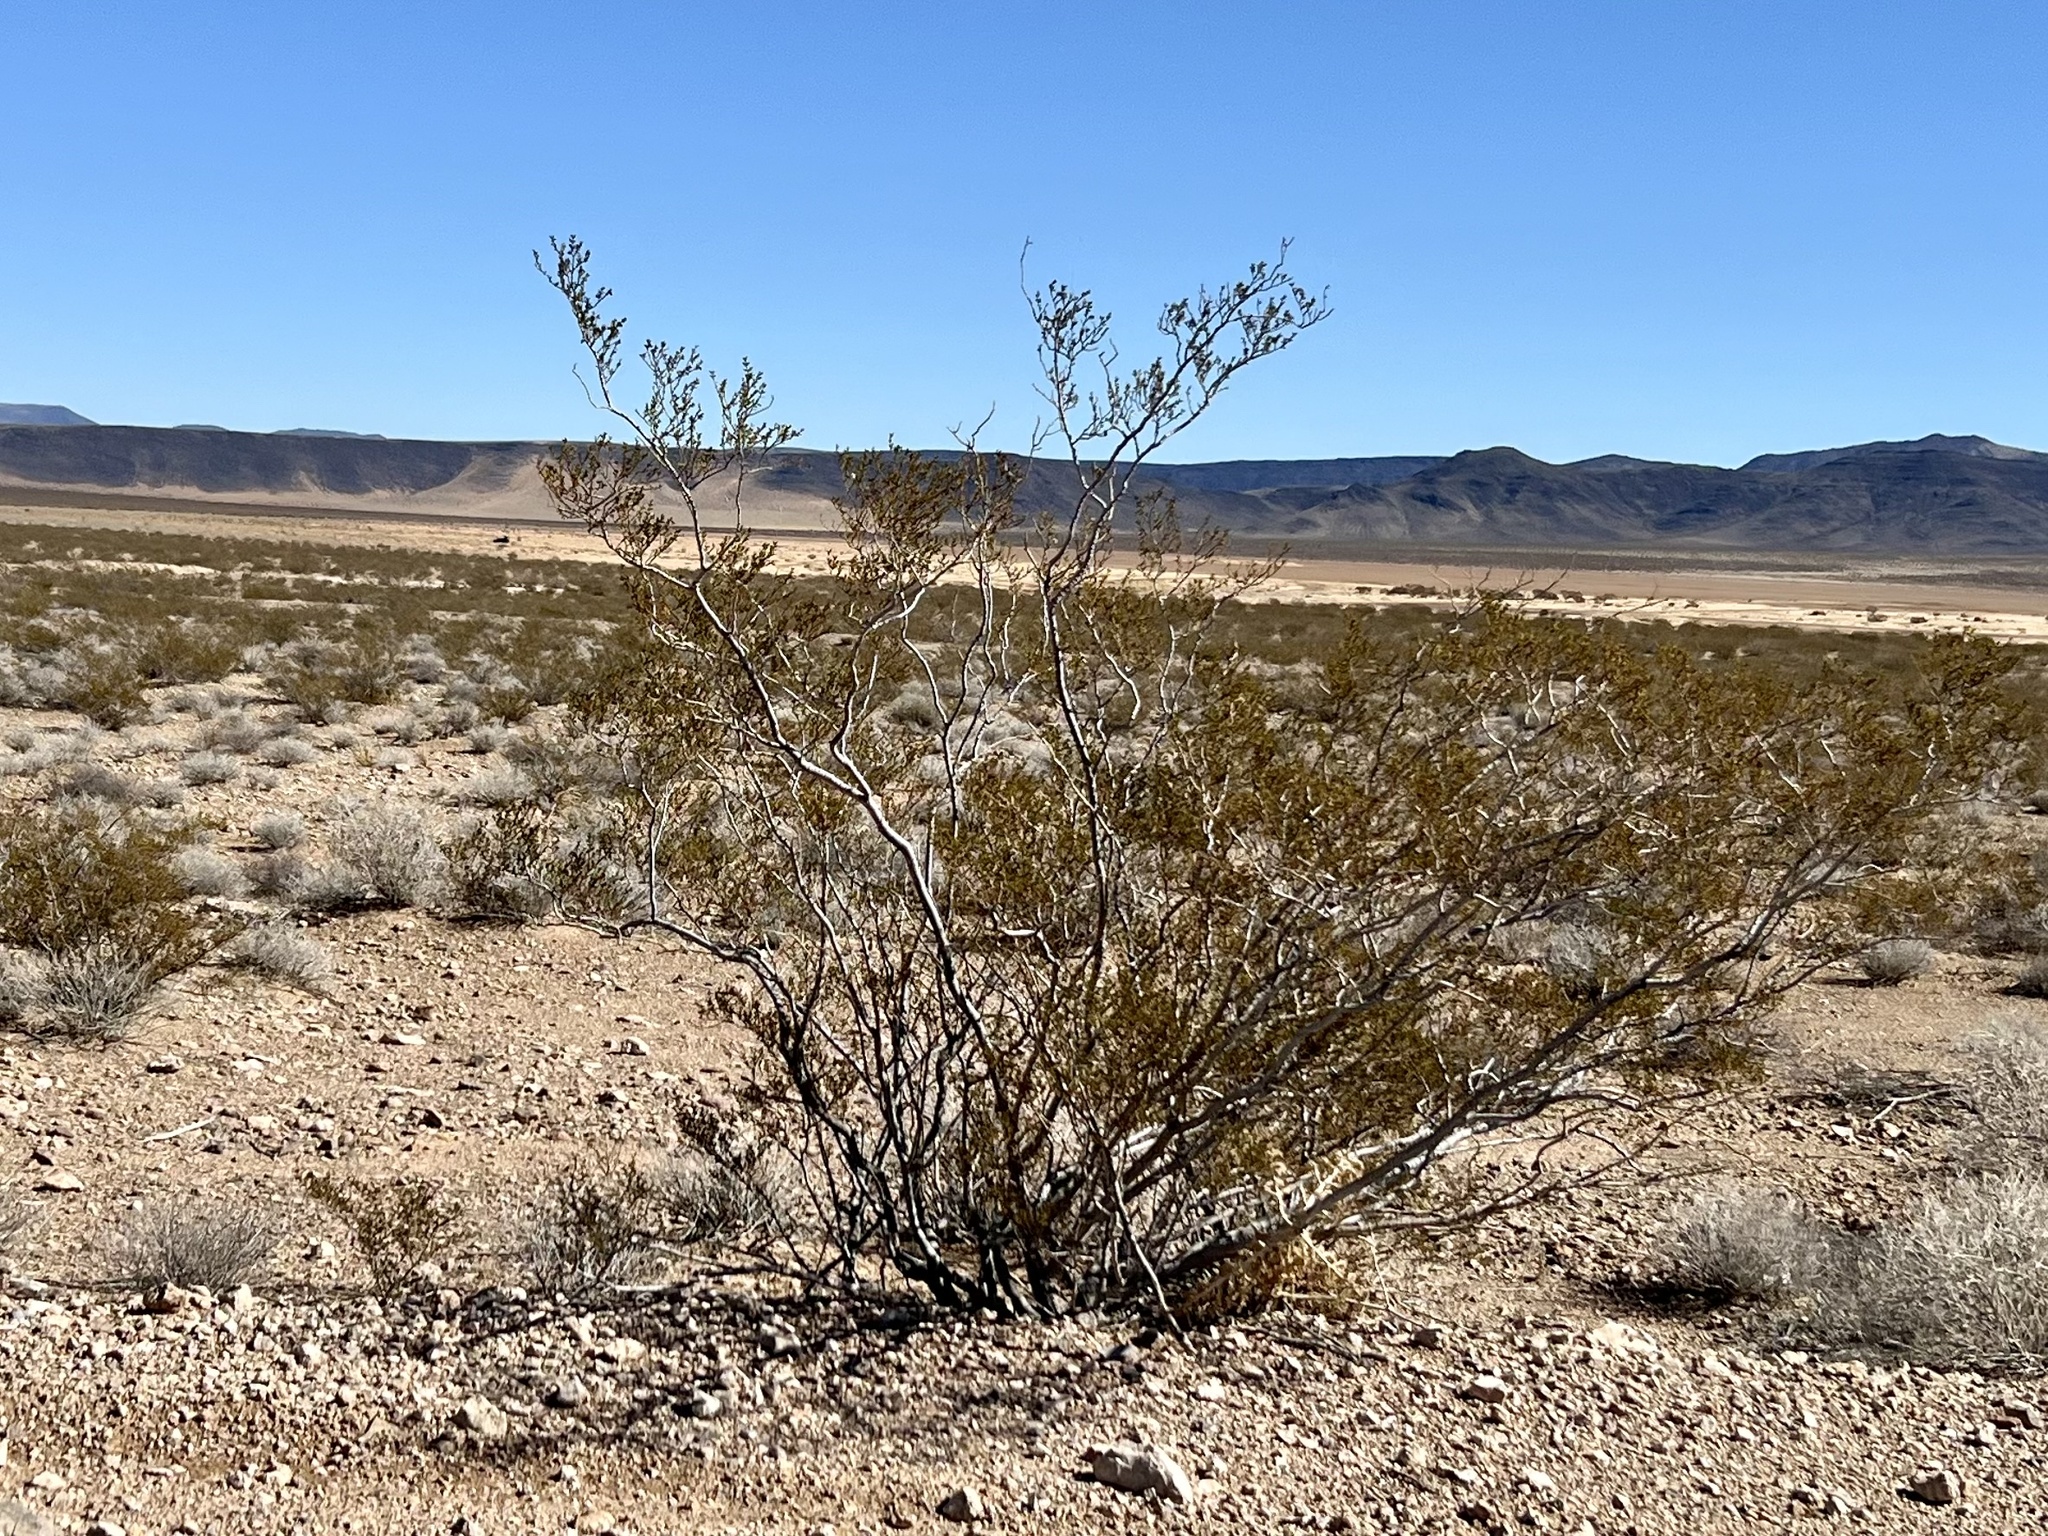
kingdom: Plantae
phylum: Tracheophyta
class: Magnoliopsida
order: Zygophyllales
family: Zygophyllaceae
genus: Larrea
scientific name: Larrea tridentata
